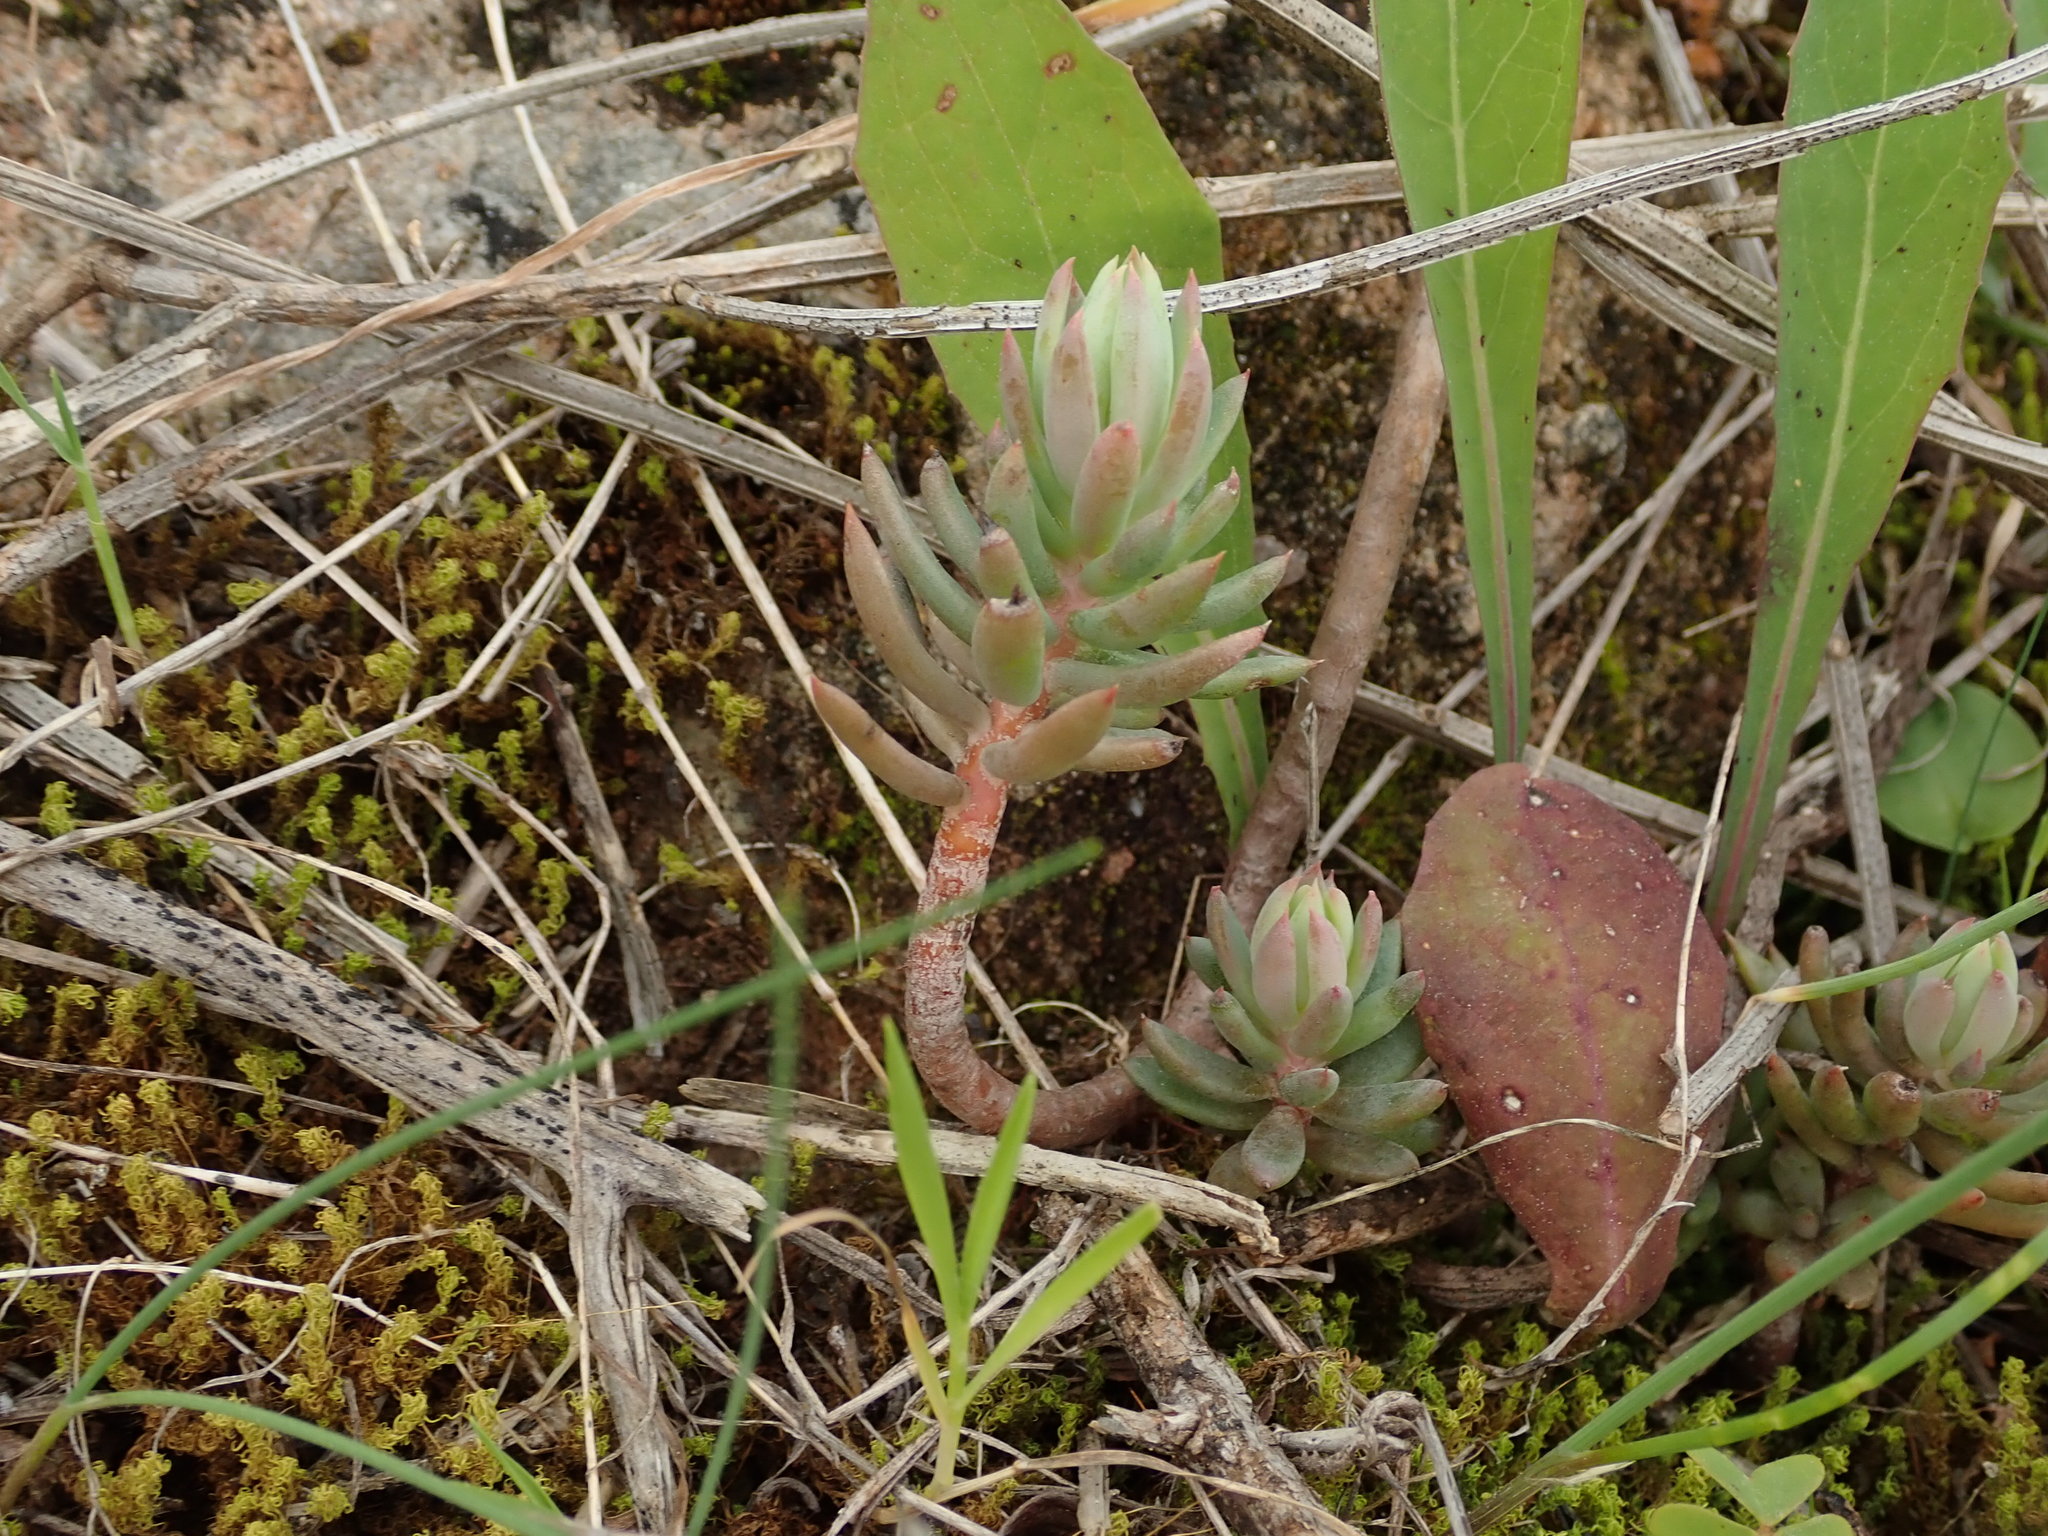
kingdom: Plantae
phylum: Tracheophyta
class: Magnoliopsida
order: Saxifragales
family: Crassulaceae
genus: Petrosedum
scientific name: Petrosedum sediforme
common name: Pale stonecrop
